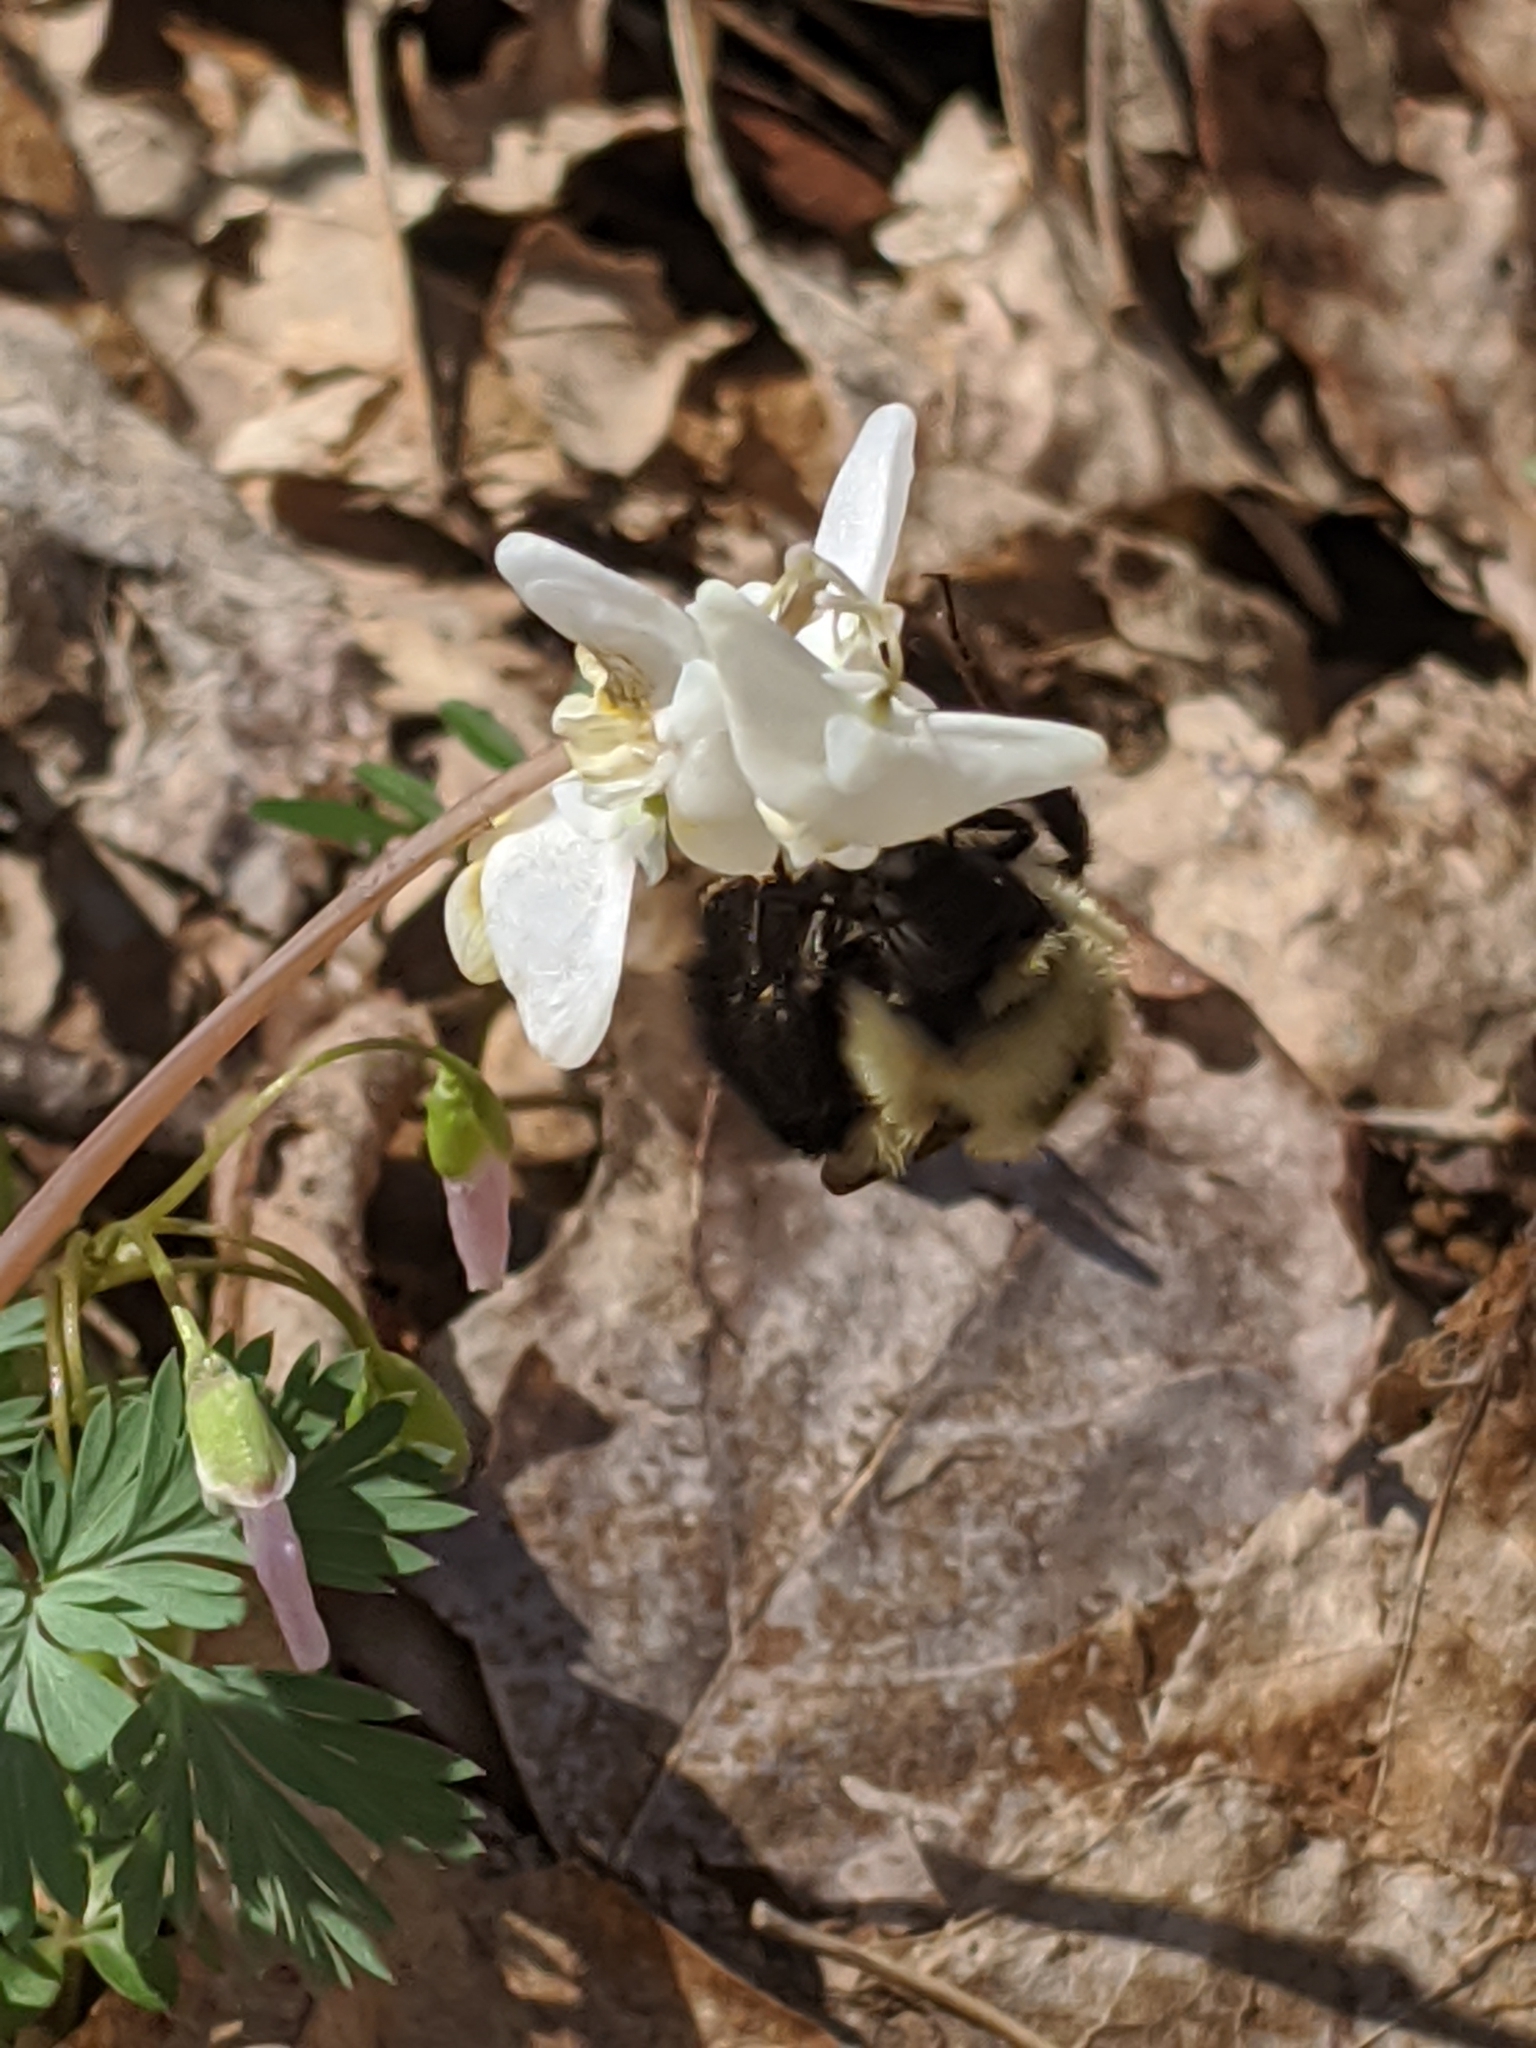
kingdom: Animalia
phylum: Arthropoda
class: Insecta
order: Hymenoptera
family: Apidae
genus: Bombus
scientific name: Bombus bimaculatus
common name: Two-spotted bumble bee
